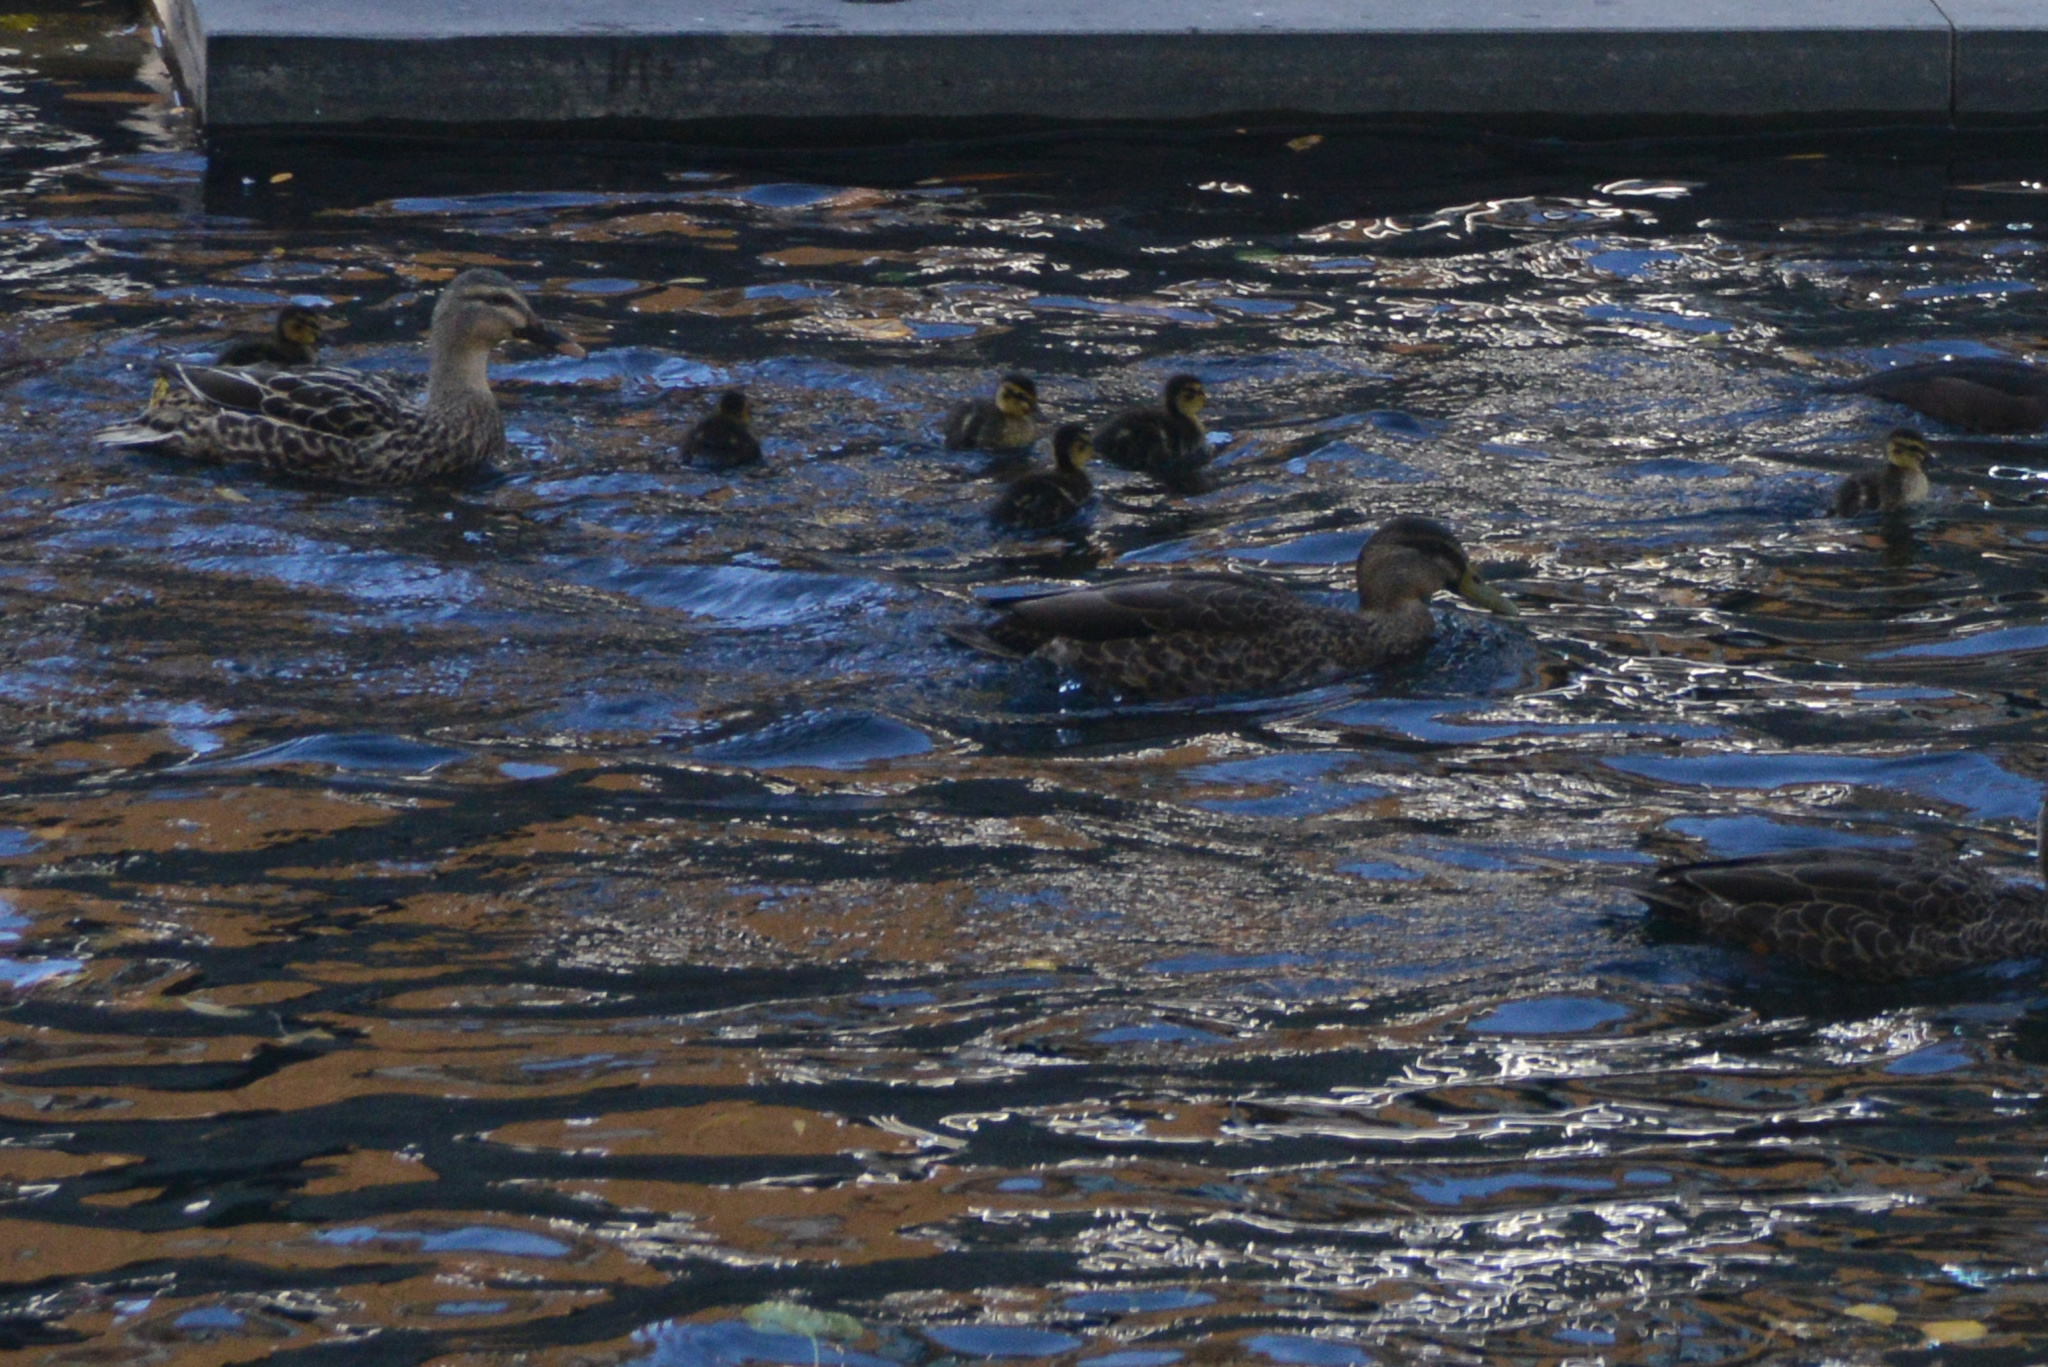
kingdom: Animalia
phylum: Chordata
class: Aves
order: Anseriformes
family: Anatidae
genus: Anas
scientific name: Anas
